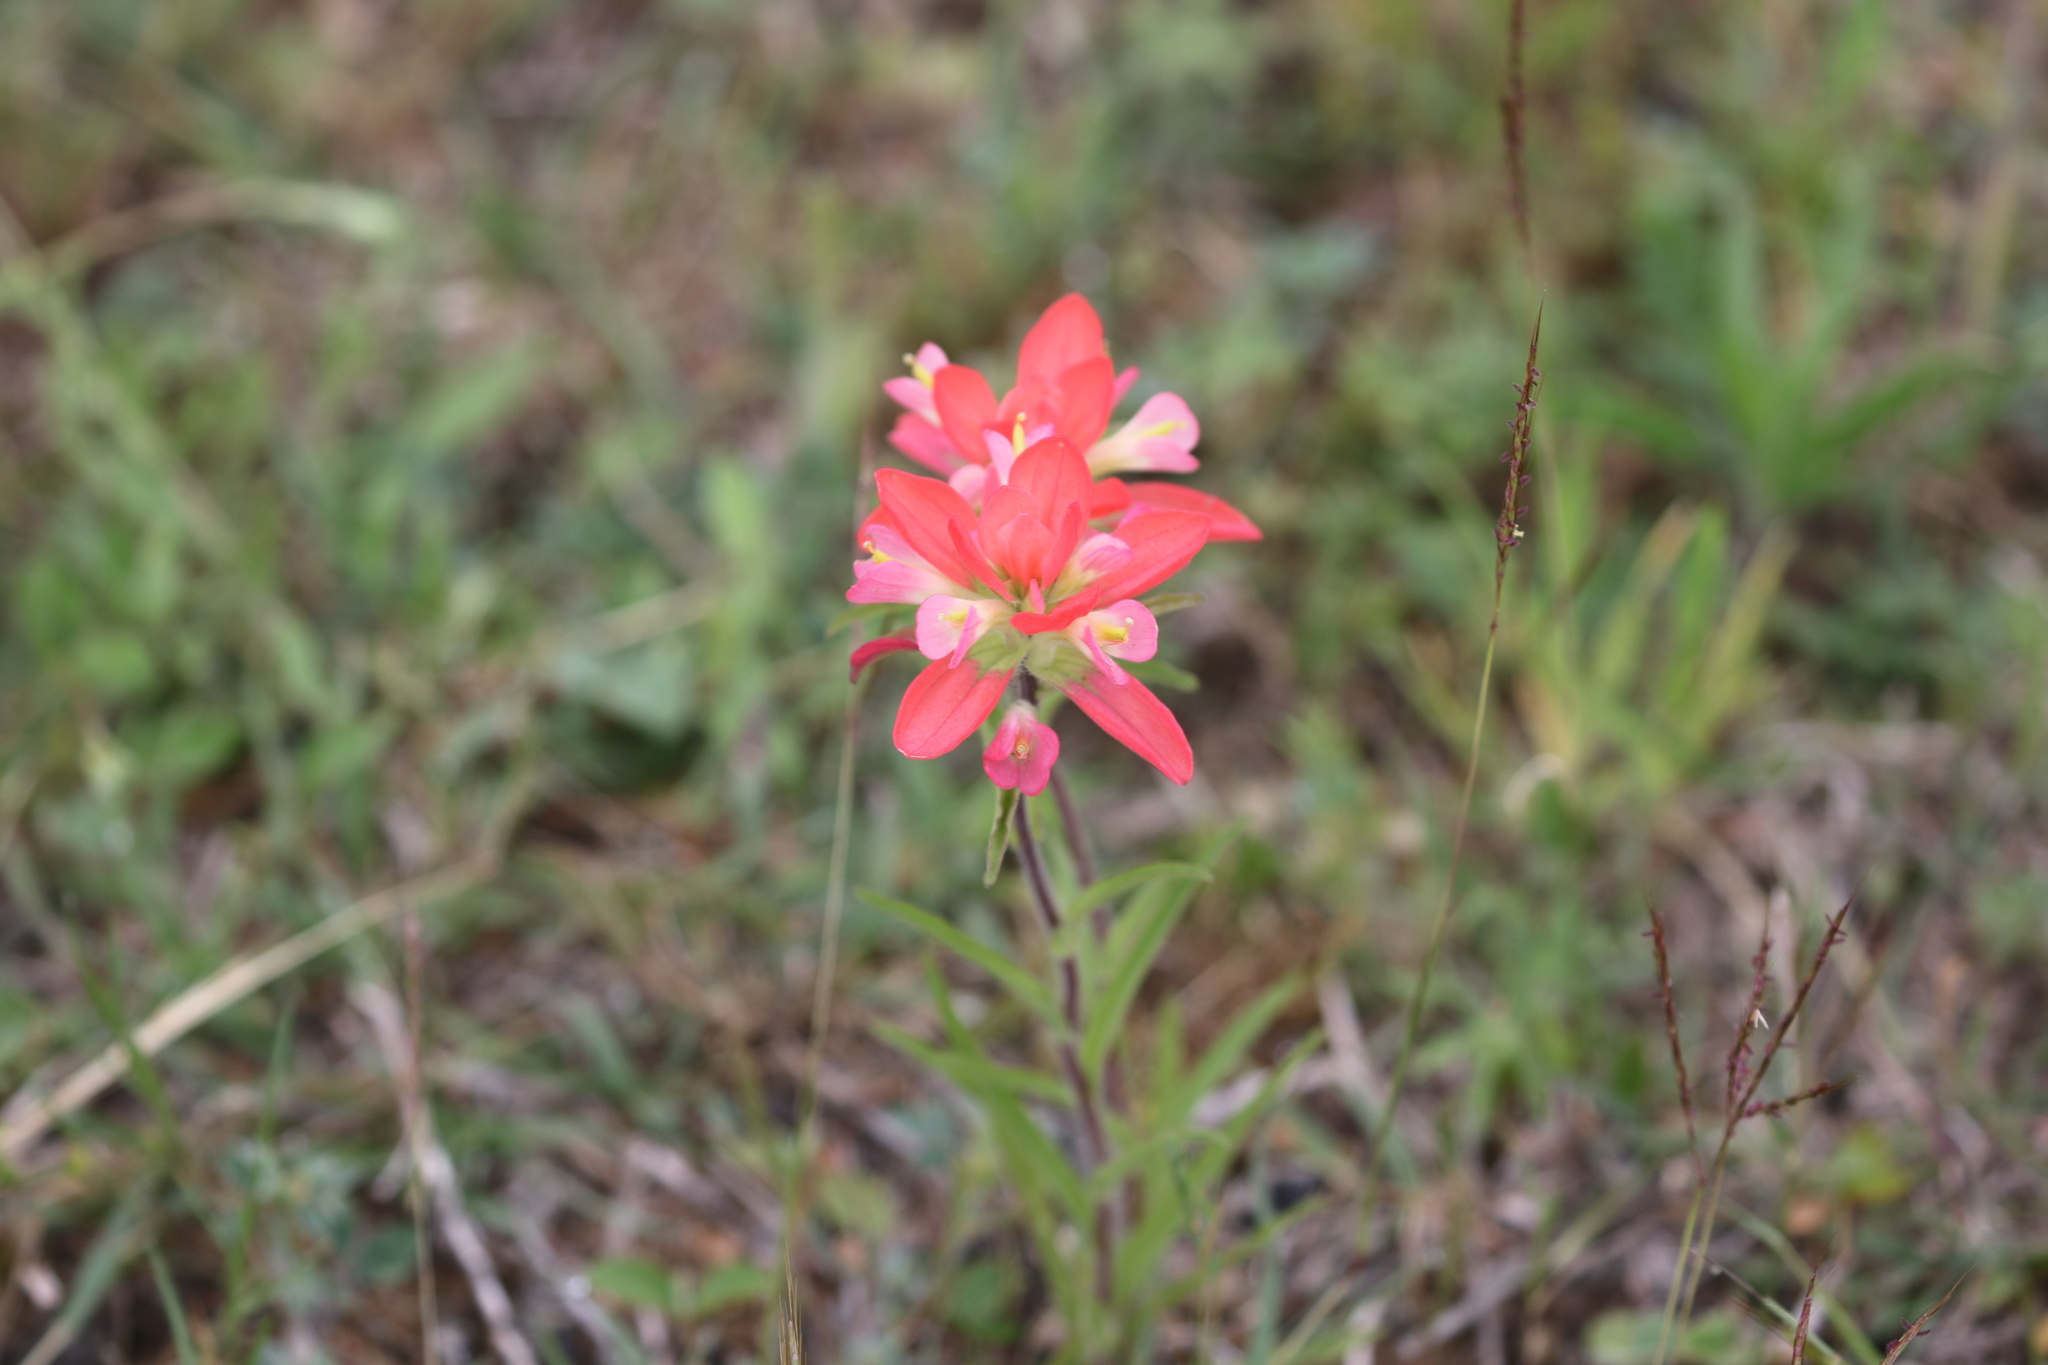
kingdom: Plantae
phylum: Tracheophyta
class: Magnoliopsida
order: Lamiales
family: Orobanchaceae
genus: Castilleja
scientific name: Castilleja indivisa
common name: Texas paintbrush
